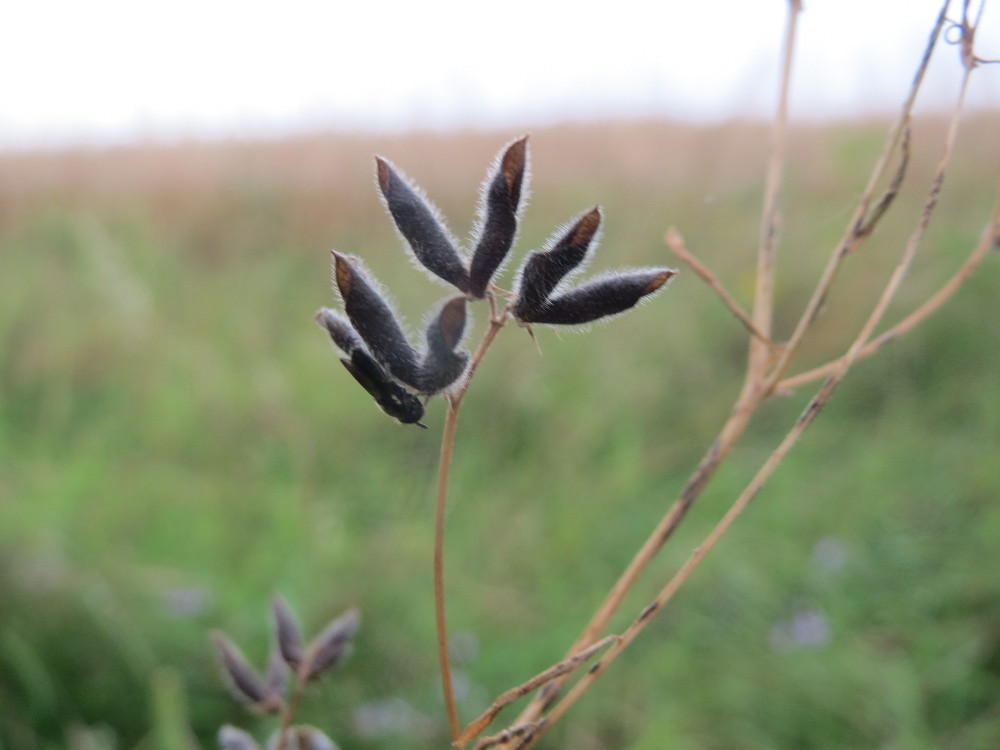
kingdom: Plantae
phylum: Tracheophyta
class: Magnoliopsida
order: Fabales
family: Fabaceae
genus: Vicia
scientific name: Vicia hirsuta
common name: Tiny vetch
